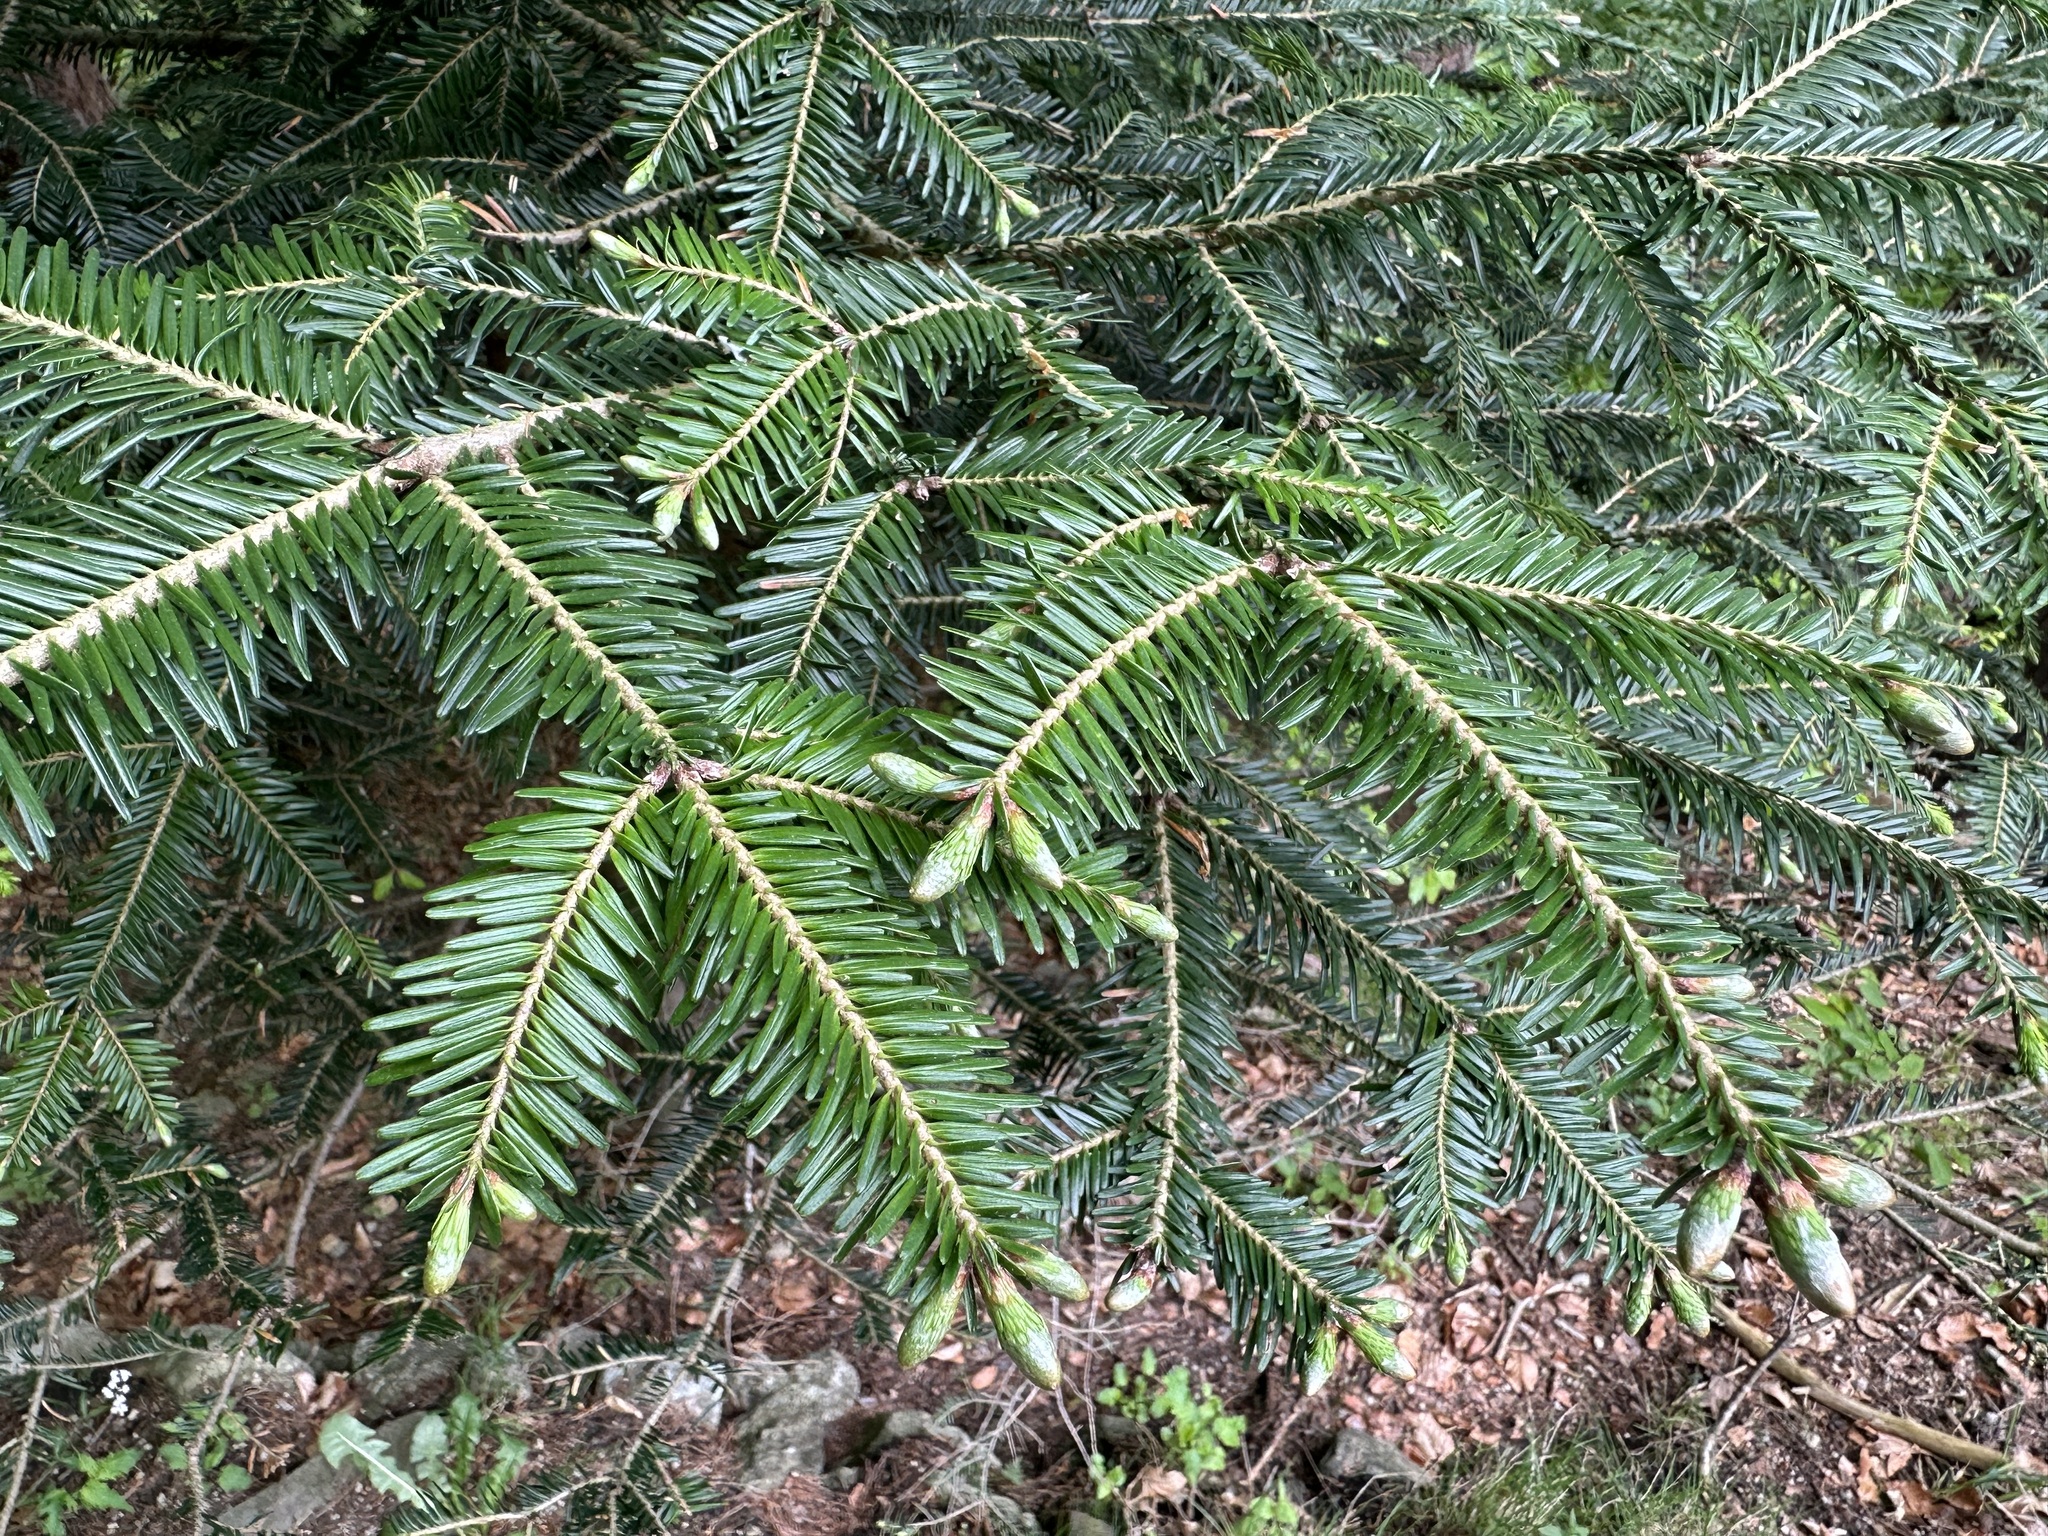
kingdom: Plantae
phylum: Tracheophyta
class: Pinopsida
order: Pinales
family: Pinaceae
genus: Abies
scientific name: Abies alba
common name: Silver fir
